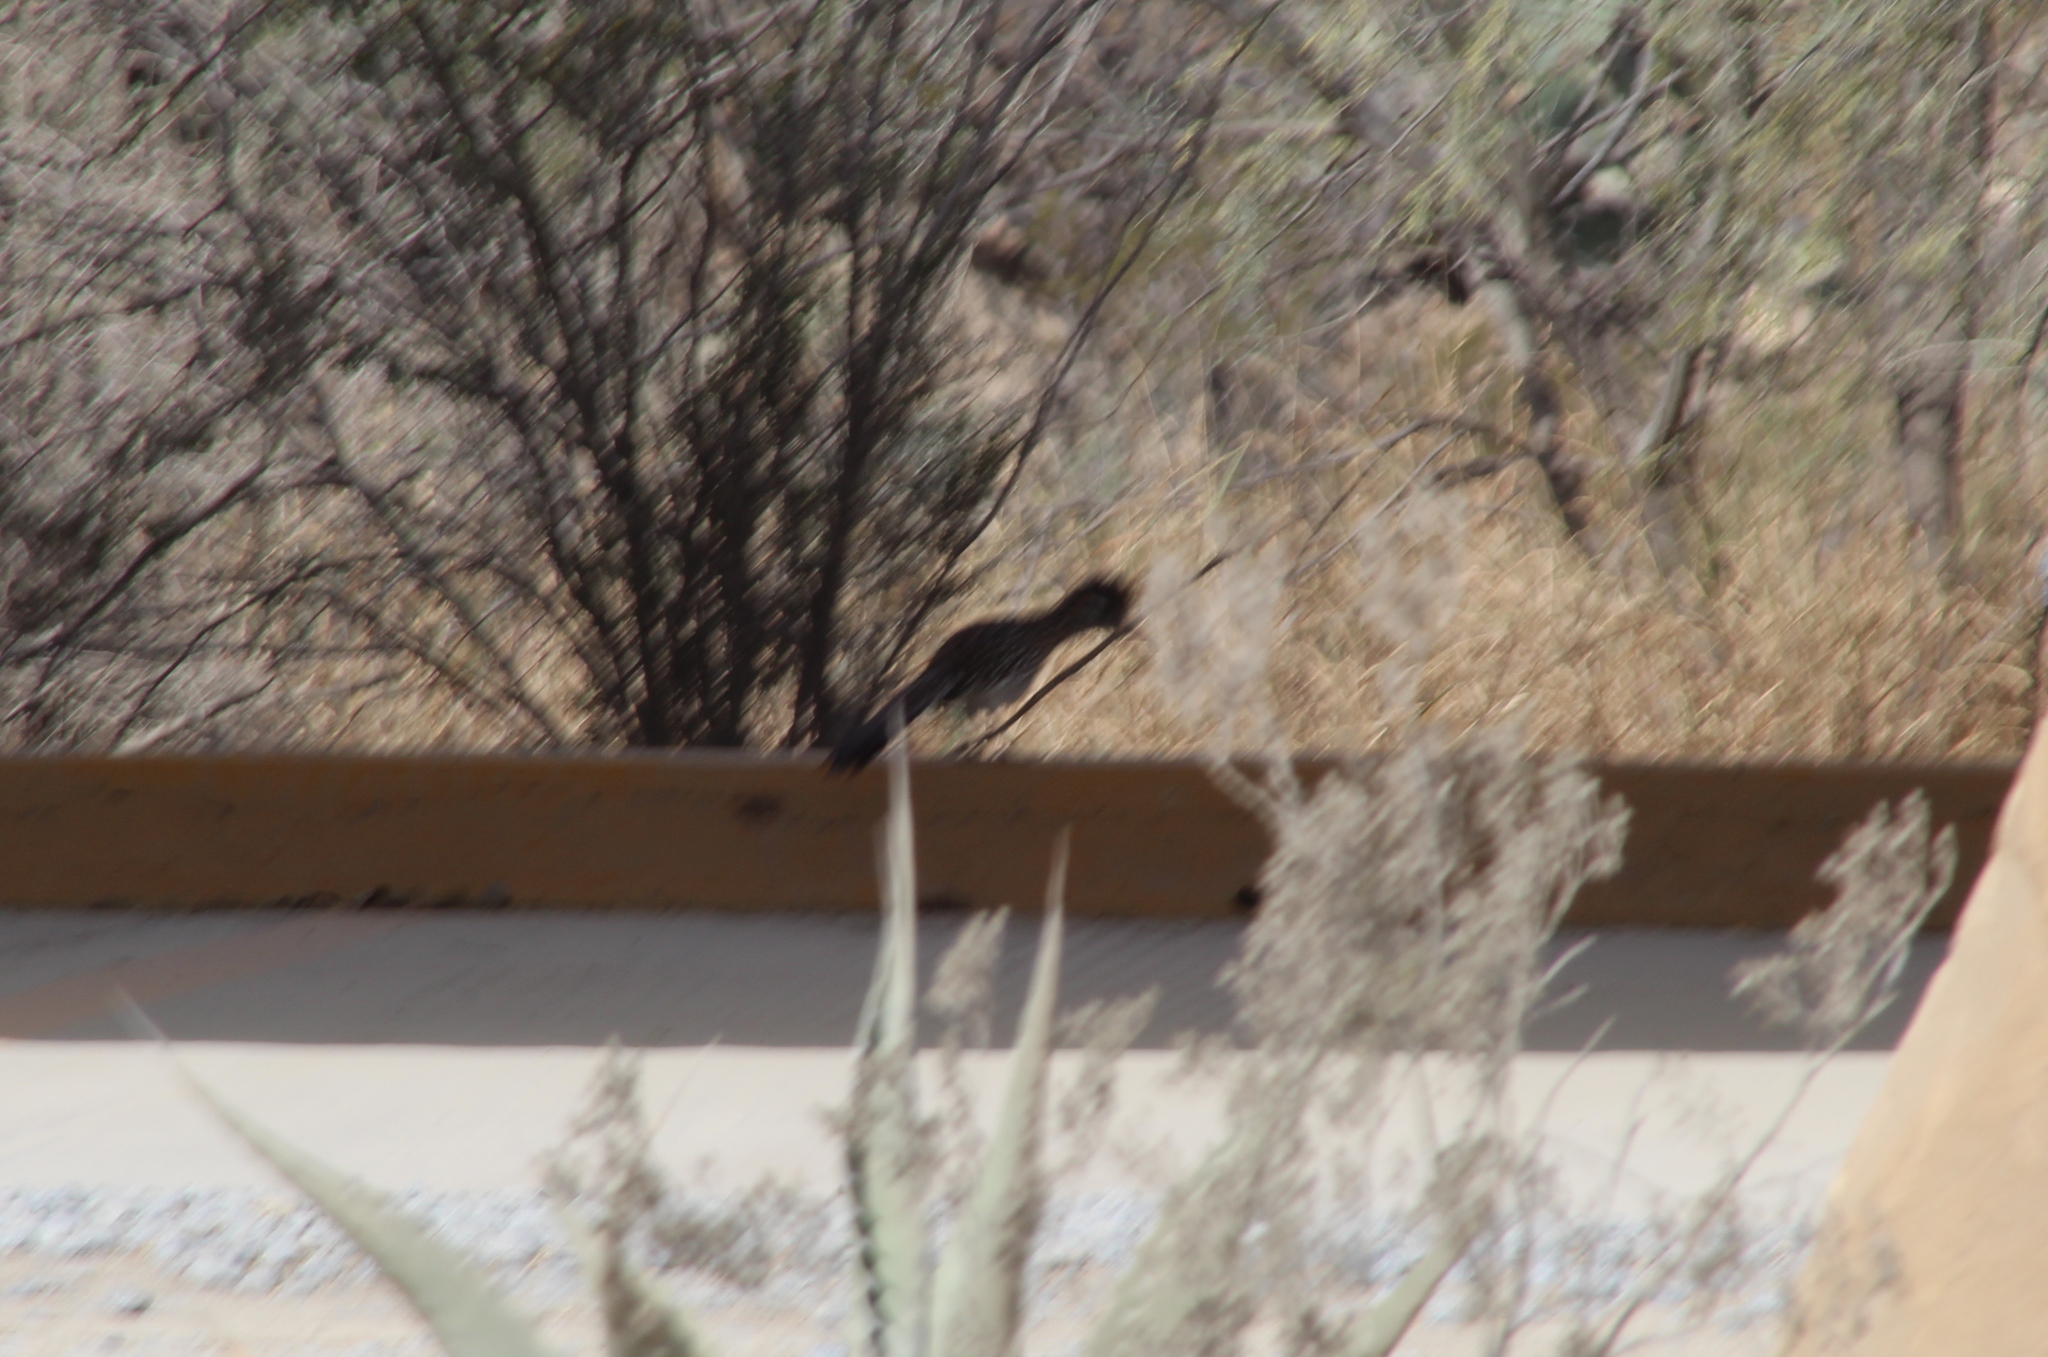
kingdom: Animalia
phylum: Chordata
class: Aves
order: Cuculiformes
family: Cuculidae
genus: Geococcyx
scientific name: Geococcyx californianus
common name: Greater roadrunner
